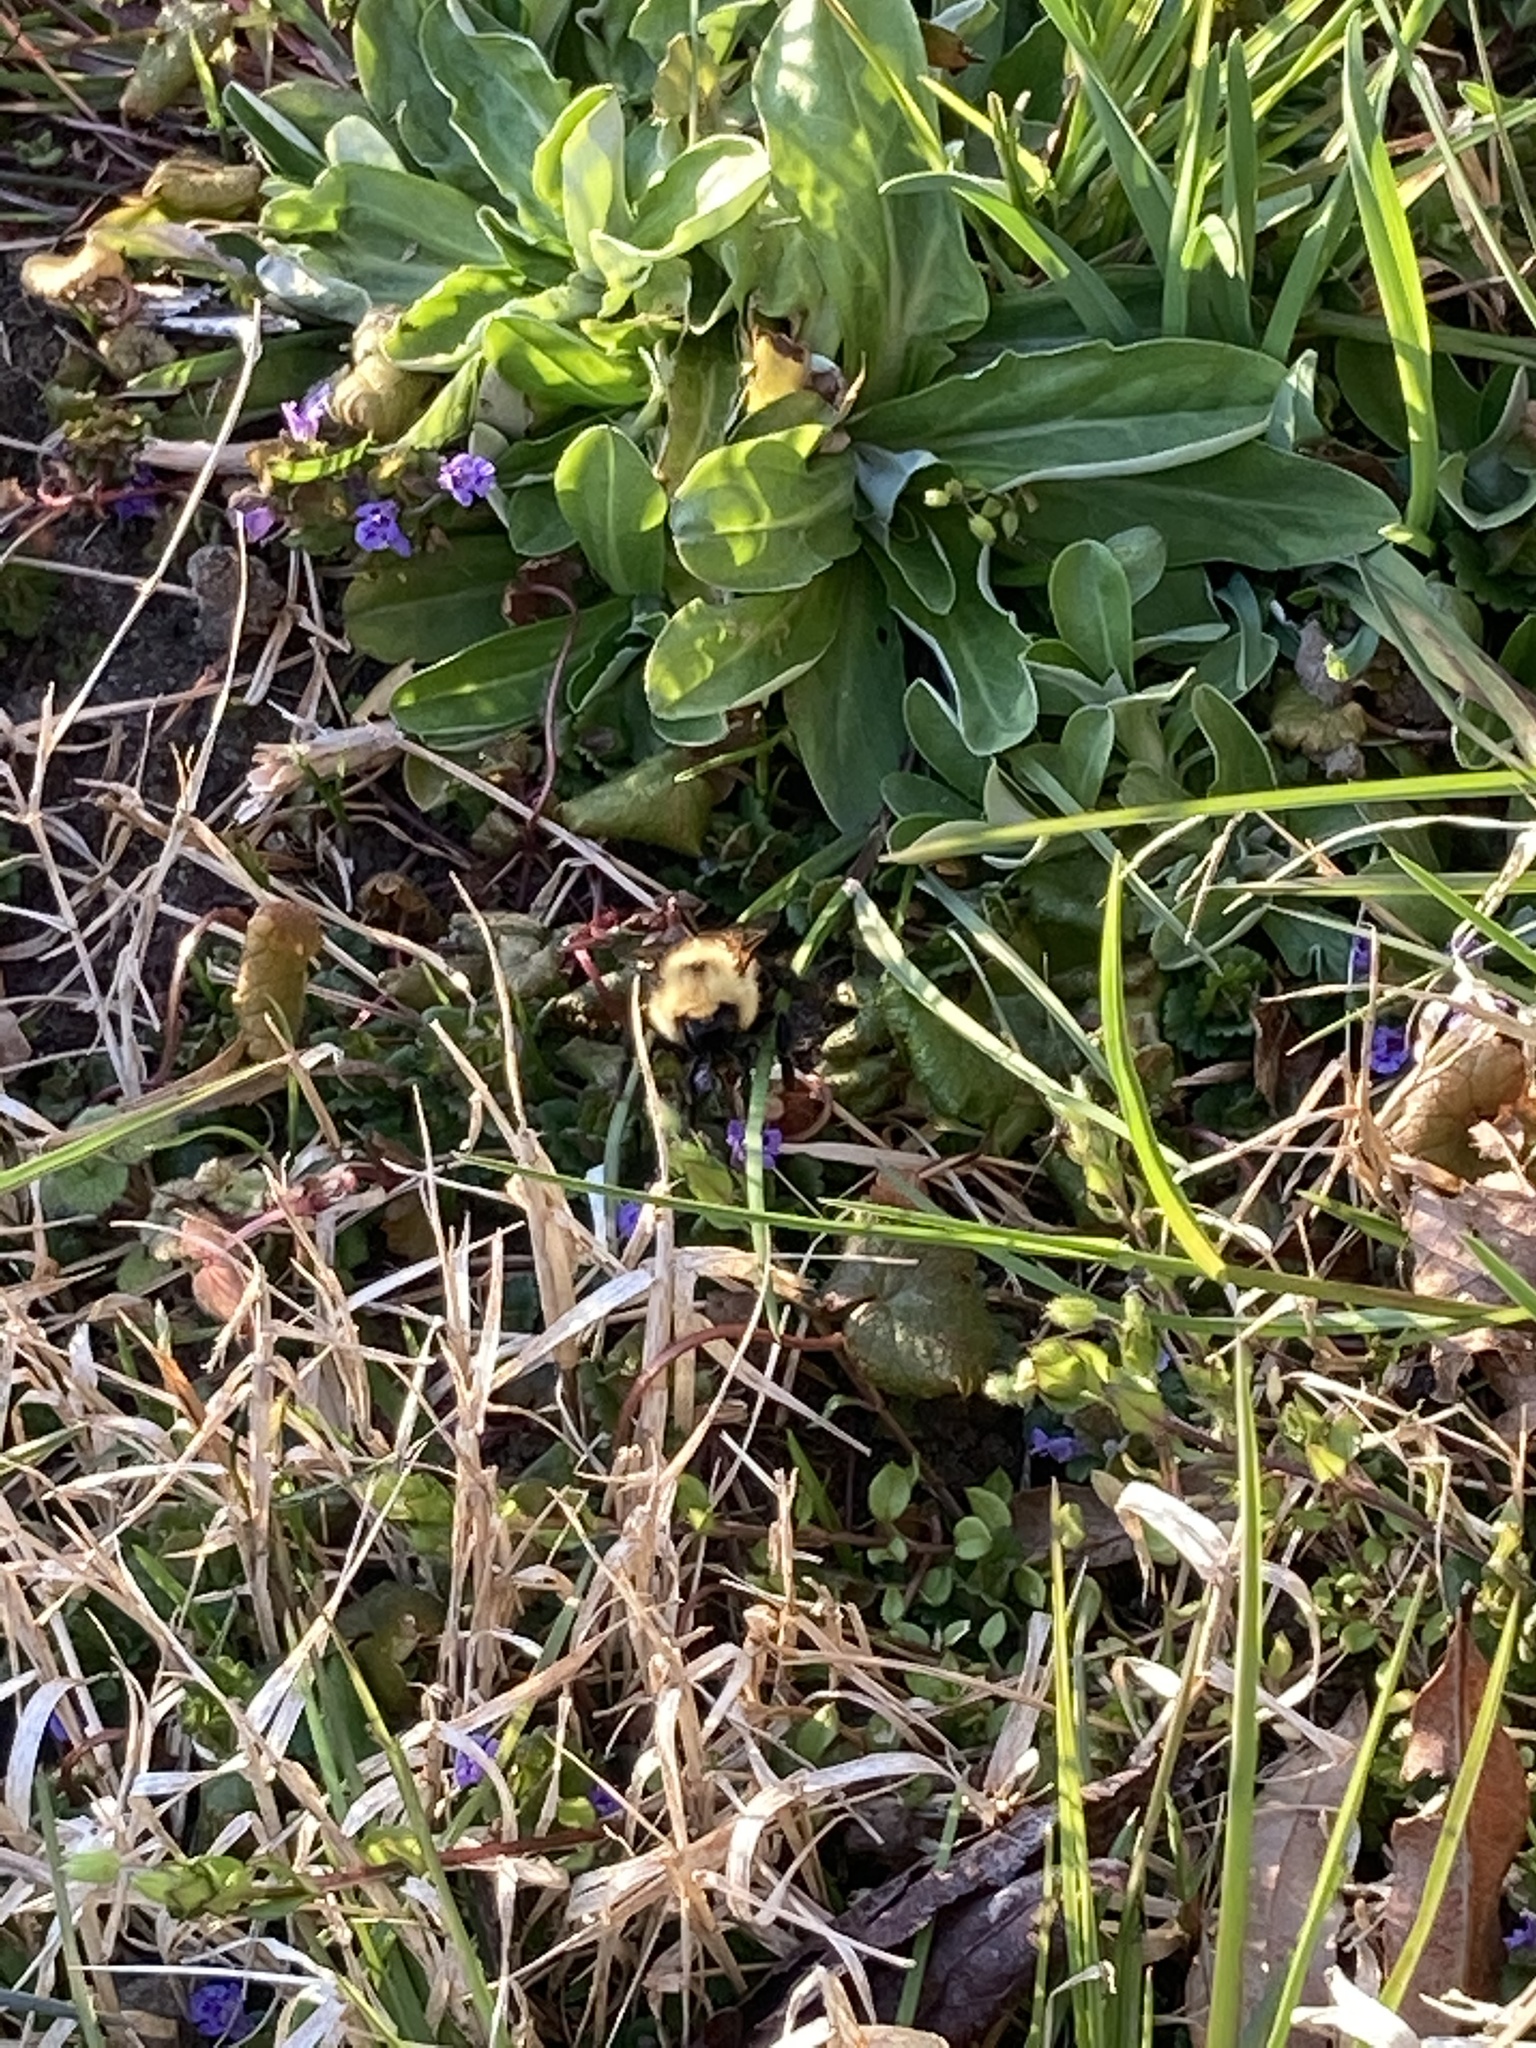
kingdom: Animalia
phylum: Arthropoda
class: Insecta
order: Hymenoptera
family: Apidae
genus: Bombus
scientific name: Bombus bimaculatus
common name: Two-spotted bumble bee
